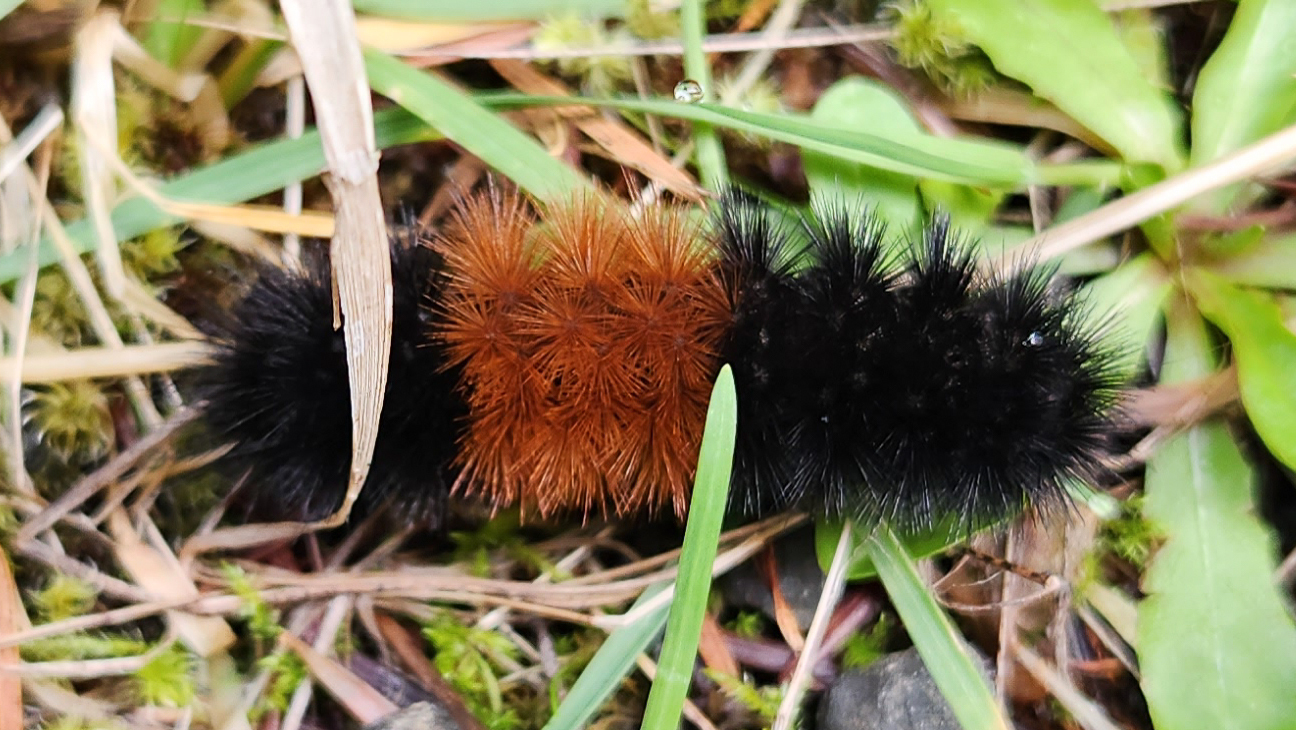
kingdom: Animalia
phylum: Arthropoda
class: Insecta
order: Lepidoptera
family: Erebidae
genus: Pyrrharctia
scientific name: Pyrrharctia isabella
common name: Isabella tiger moth
